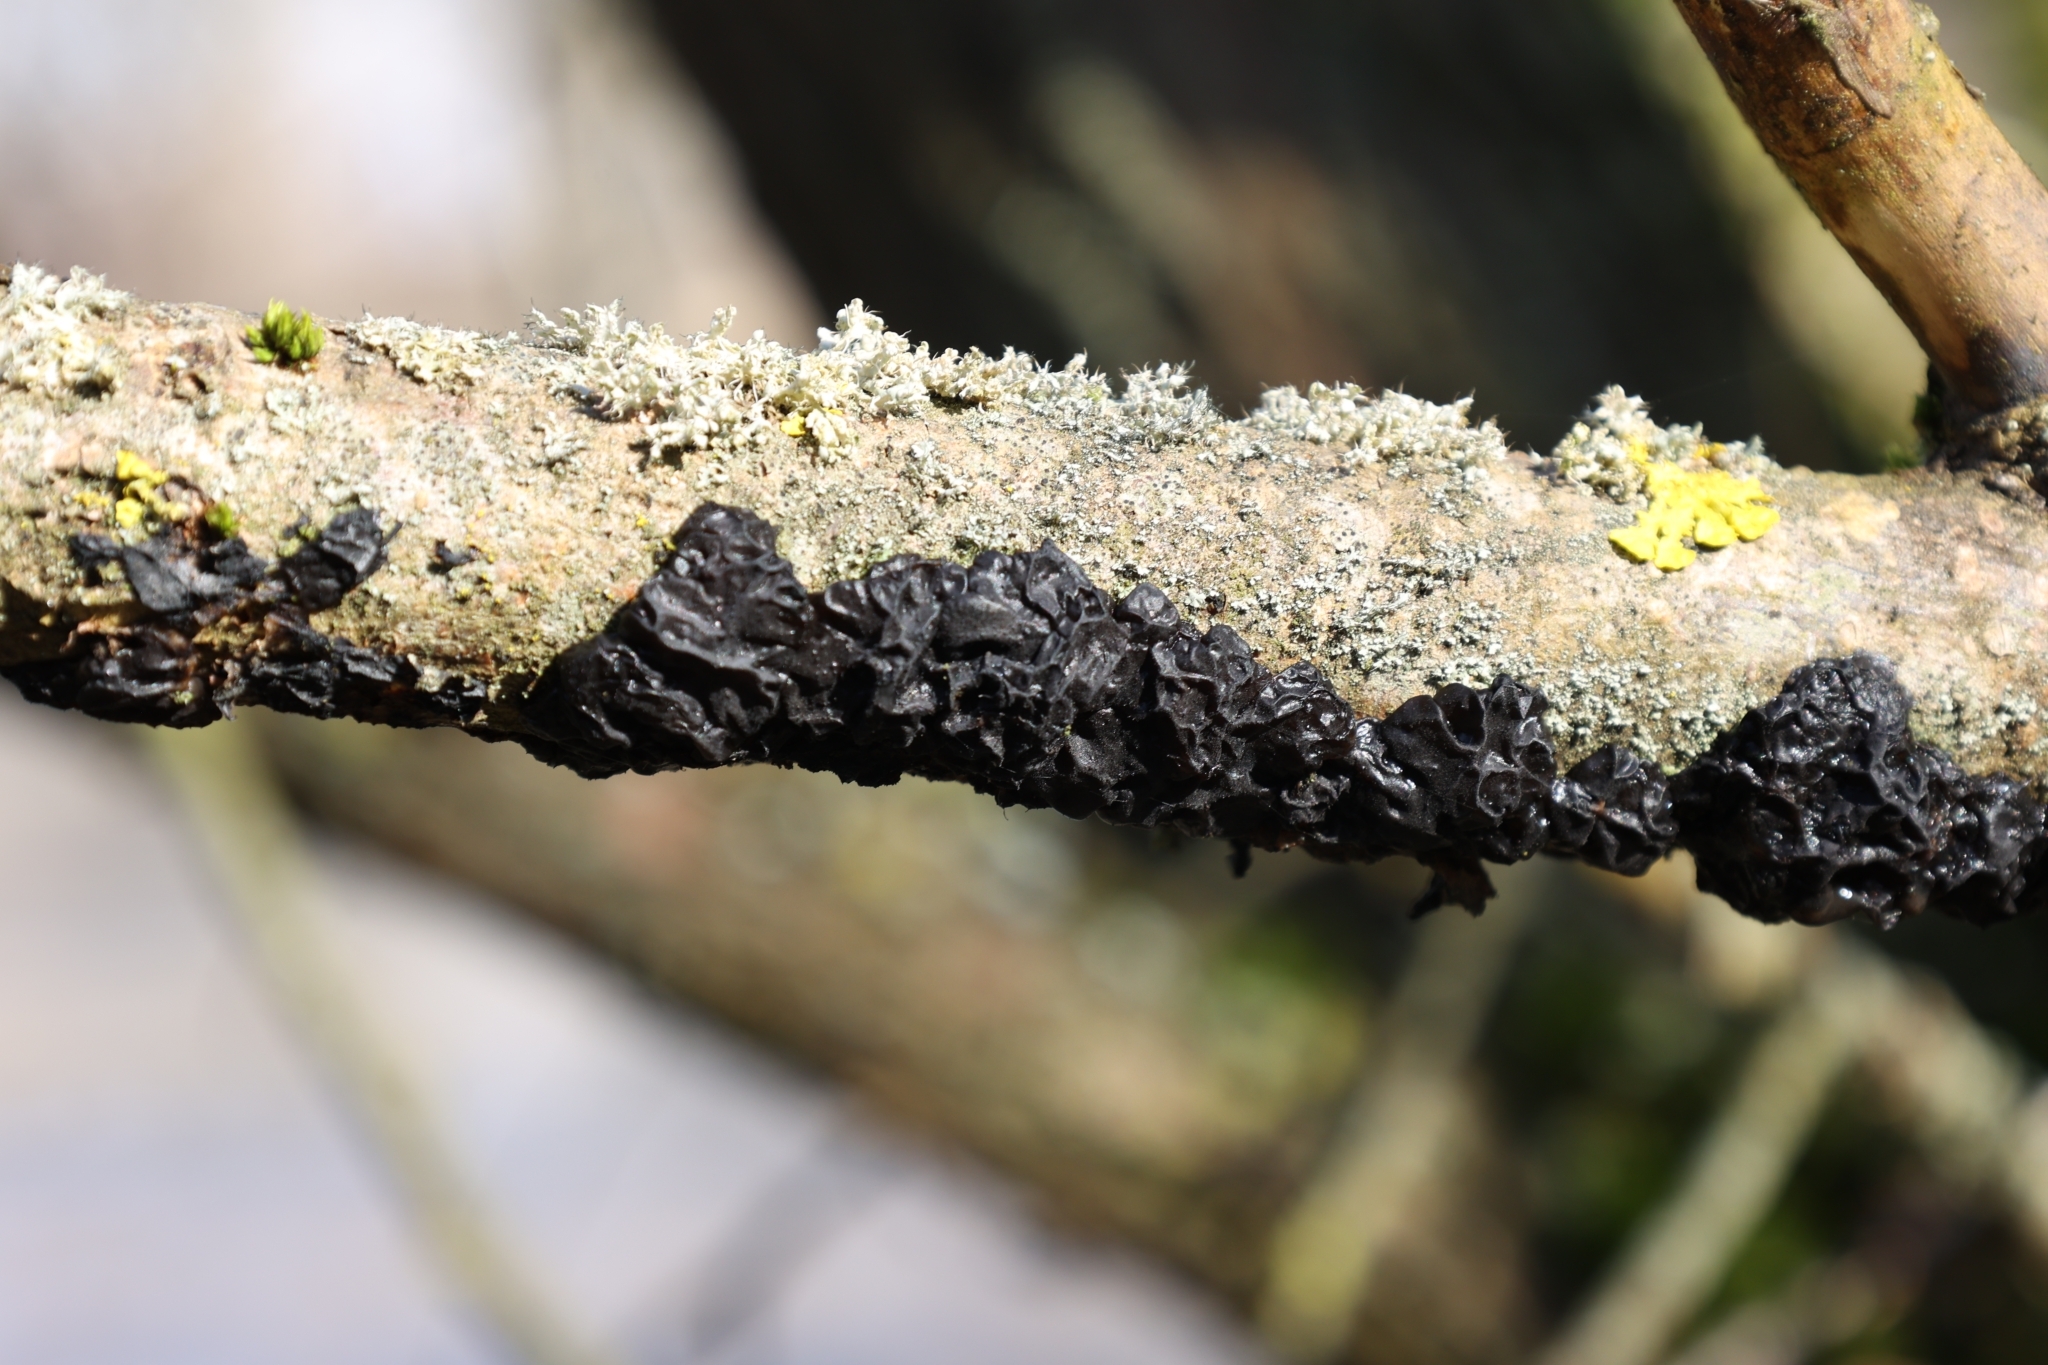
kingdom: Fungi
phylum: Basidiomycota
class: Agaricomycetes
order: Auriculariales
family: Auriculariaceae
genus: Exidia
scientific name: Exidia glandulosa
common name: Witches' butter
